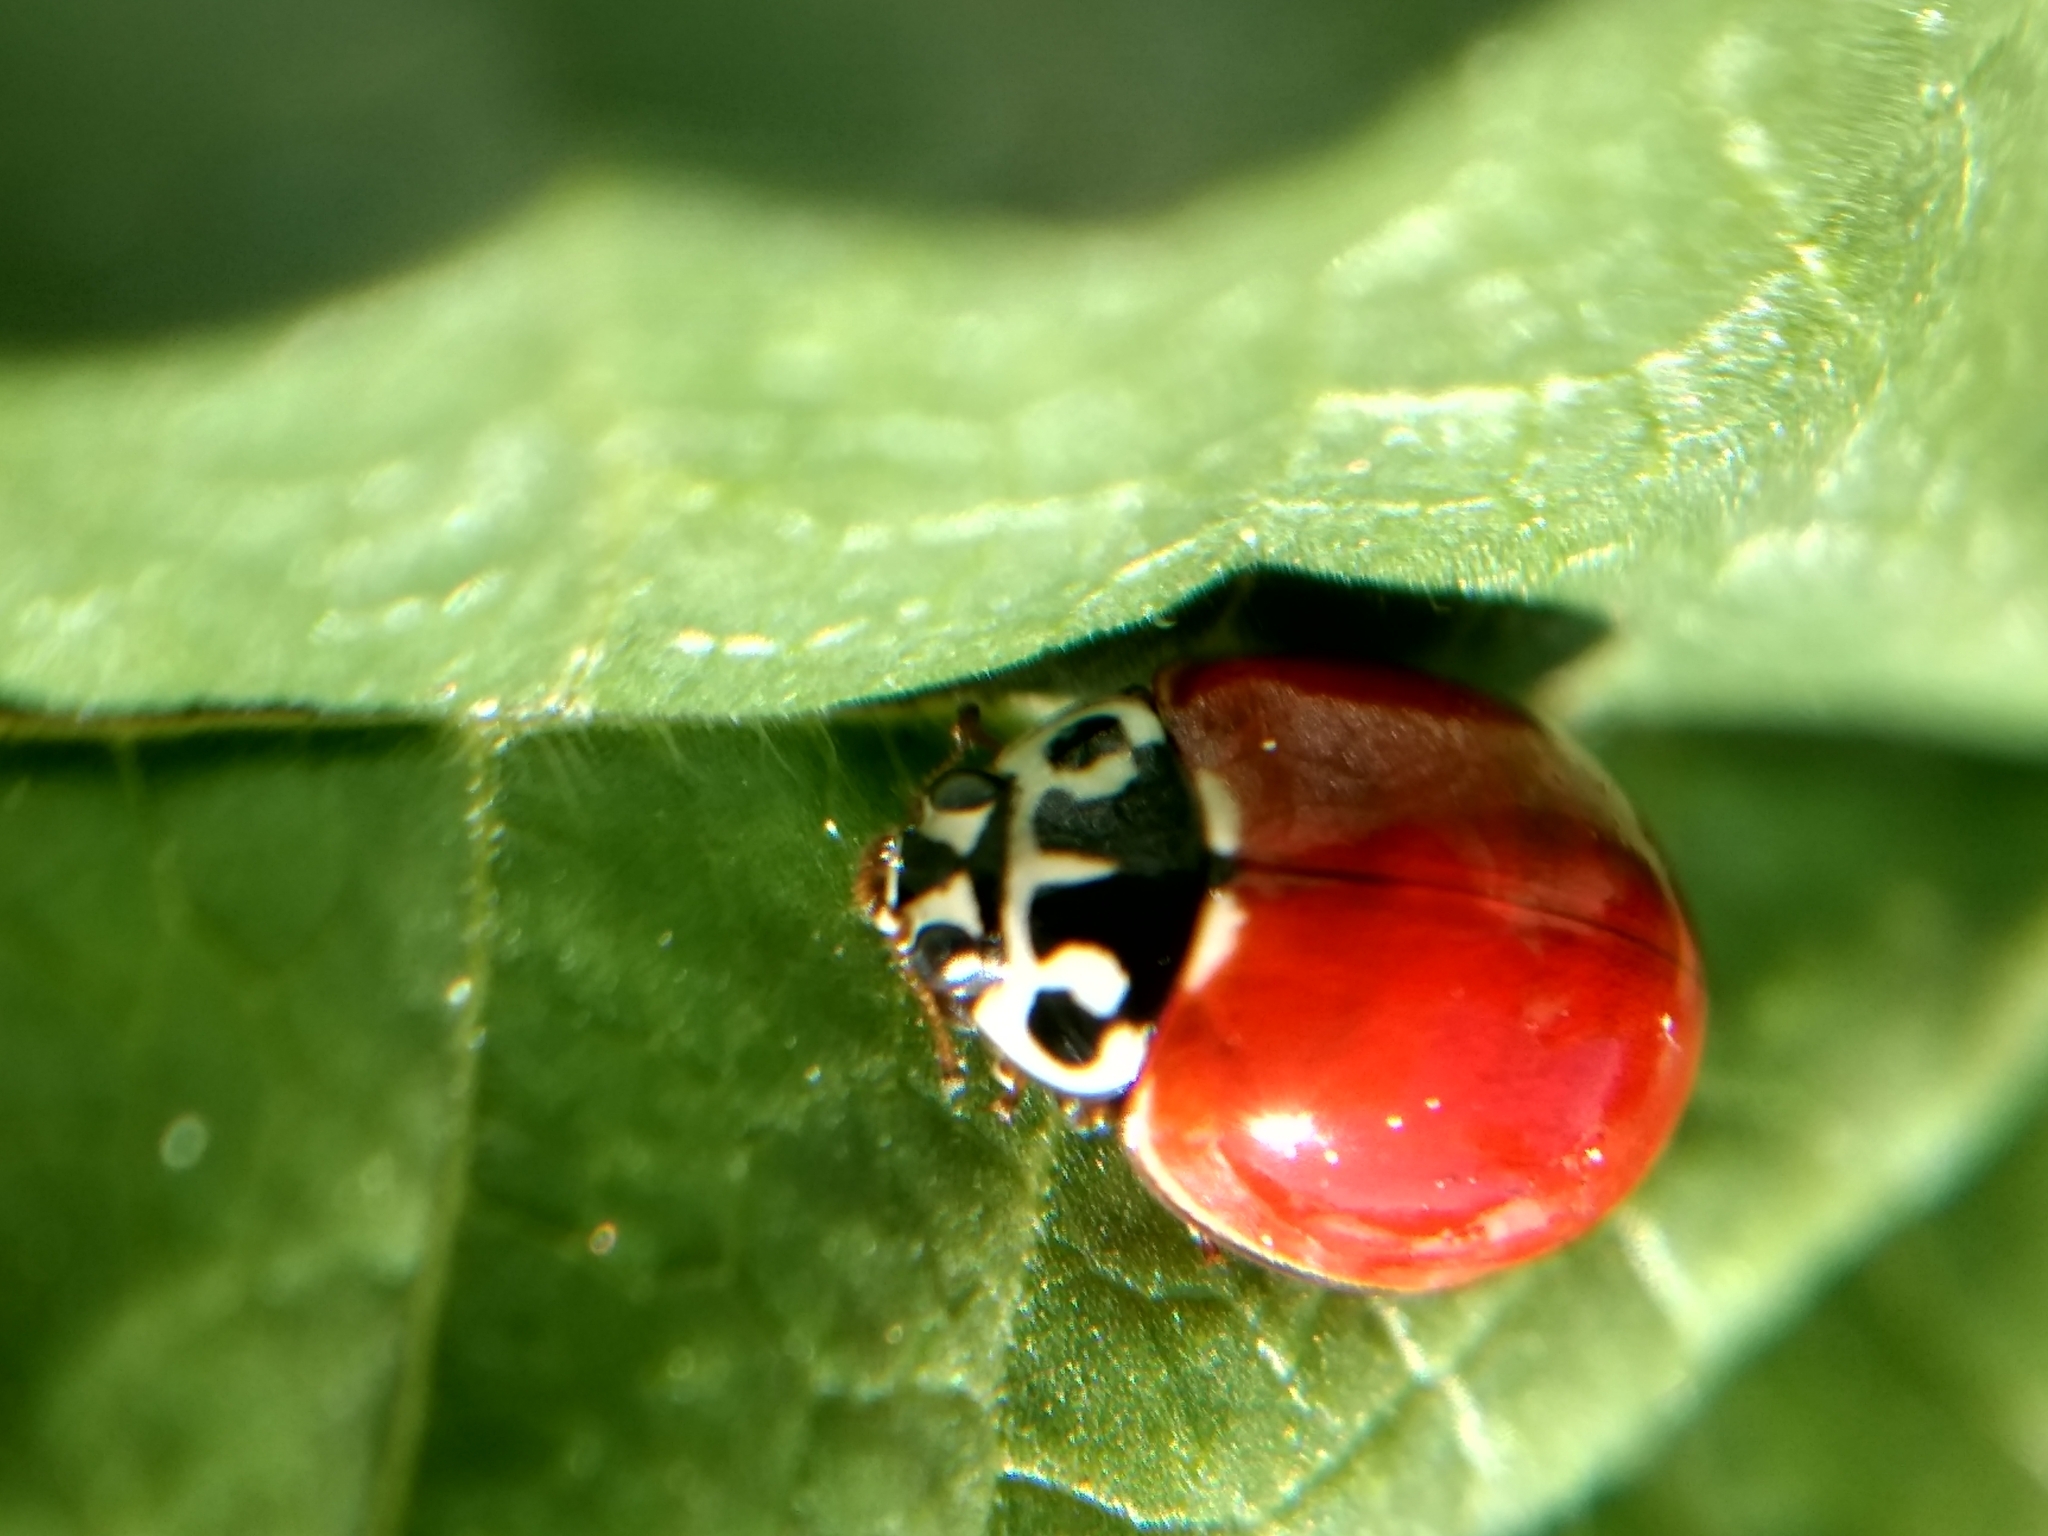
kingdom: Animalia
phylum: Arthropoda
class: Insecta
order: Coleoptera
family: Coccinellidae
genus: Cycloneda
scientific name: Cycloneda polita
